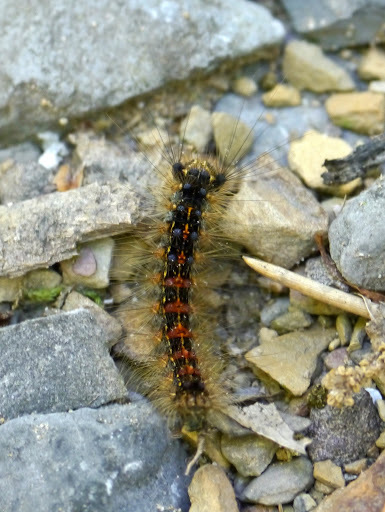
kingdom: Animalia
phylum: Arthropoda
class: Insecta
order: Lepidoptera
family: Erebidae
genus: Lymantria
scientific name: Lymantria dispar
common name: Gypsy moth
